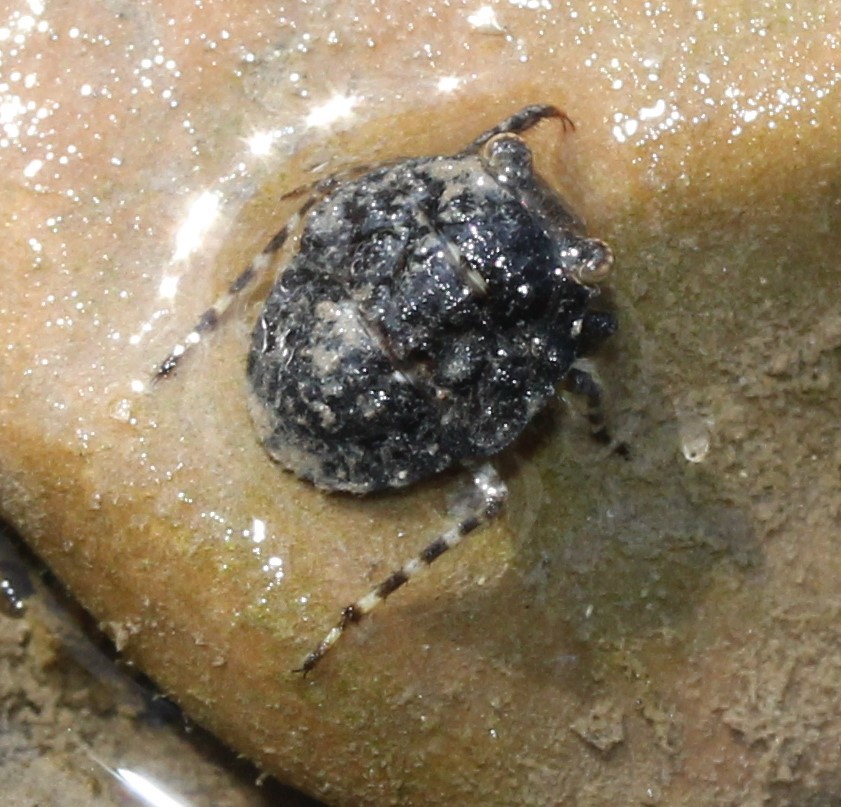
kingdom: Animalia
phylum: Arthropoda
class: Insecta
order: Hemiptera
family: Gelastocoridae
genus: Gelastocoris
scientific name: Gelastocoris oculatus
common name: Toad bug
